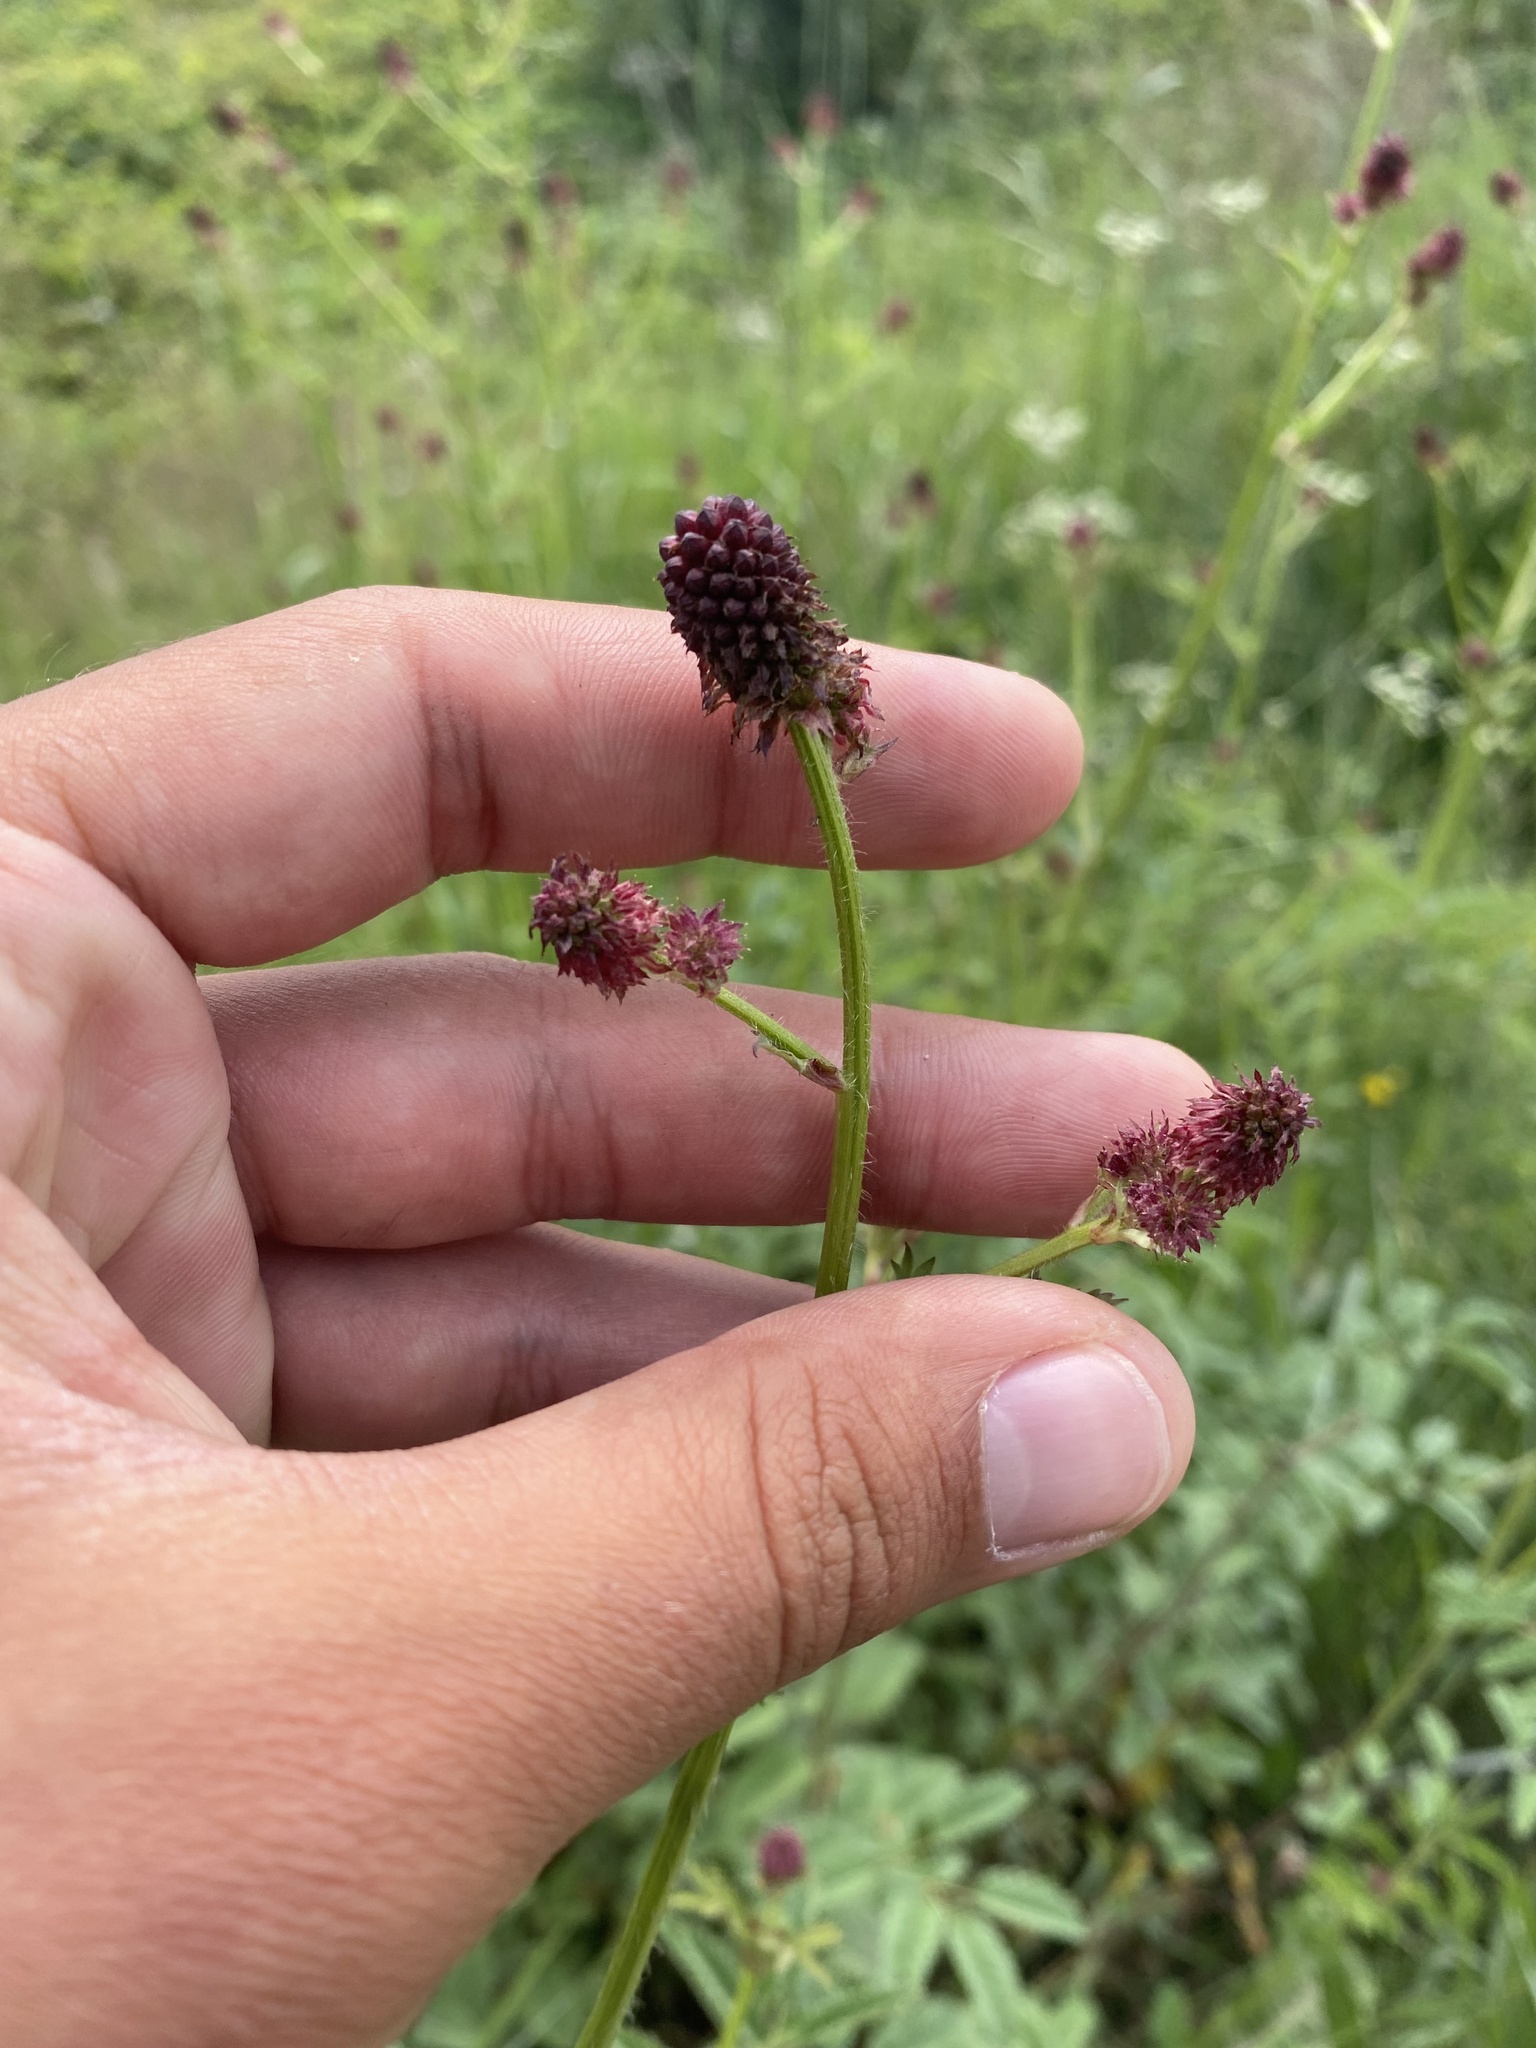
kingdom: Plantae
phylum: Tracheophyta
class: Magnoliopsida
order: Rosales
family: Rosaceae
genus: Sanguisorba
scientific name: Sanguisorba officinalis
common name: Great burnet
